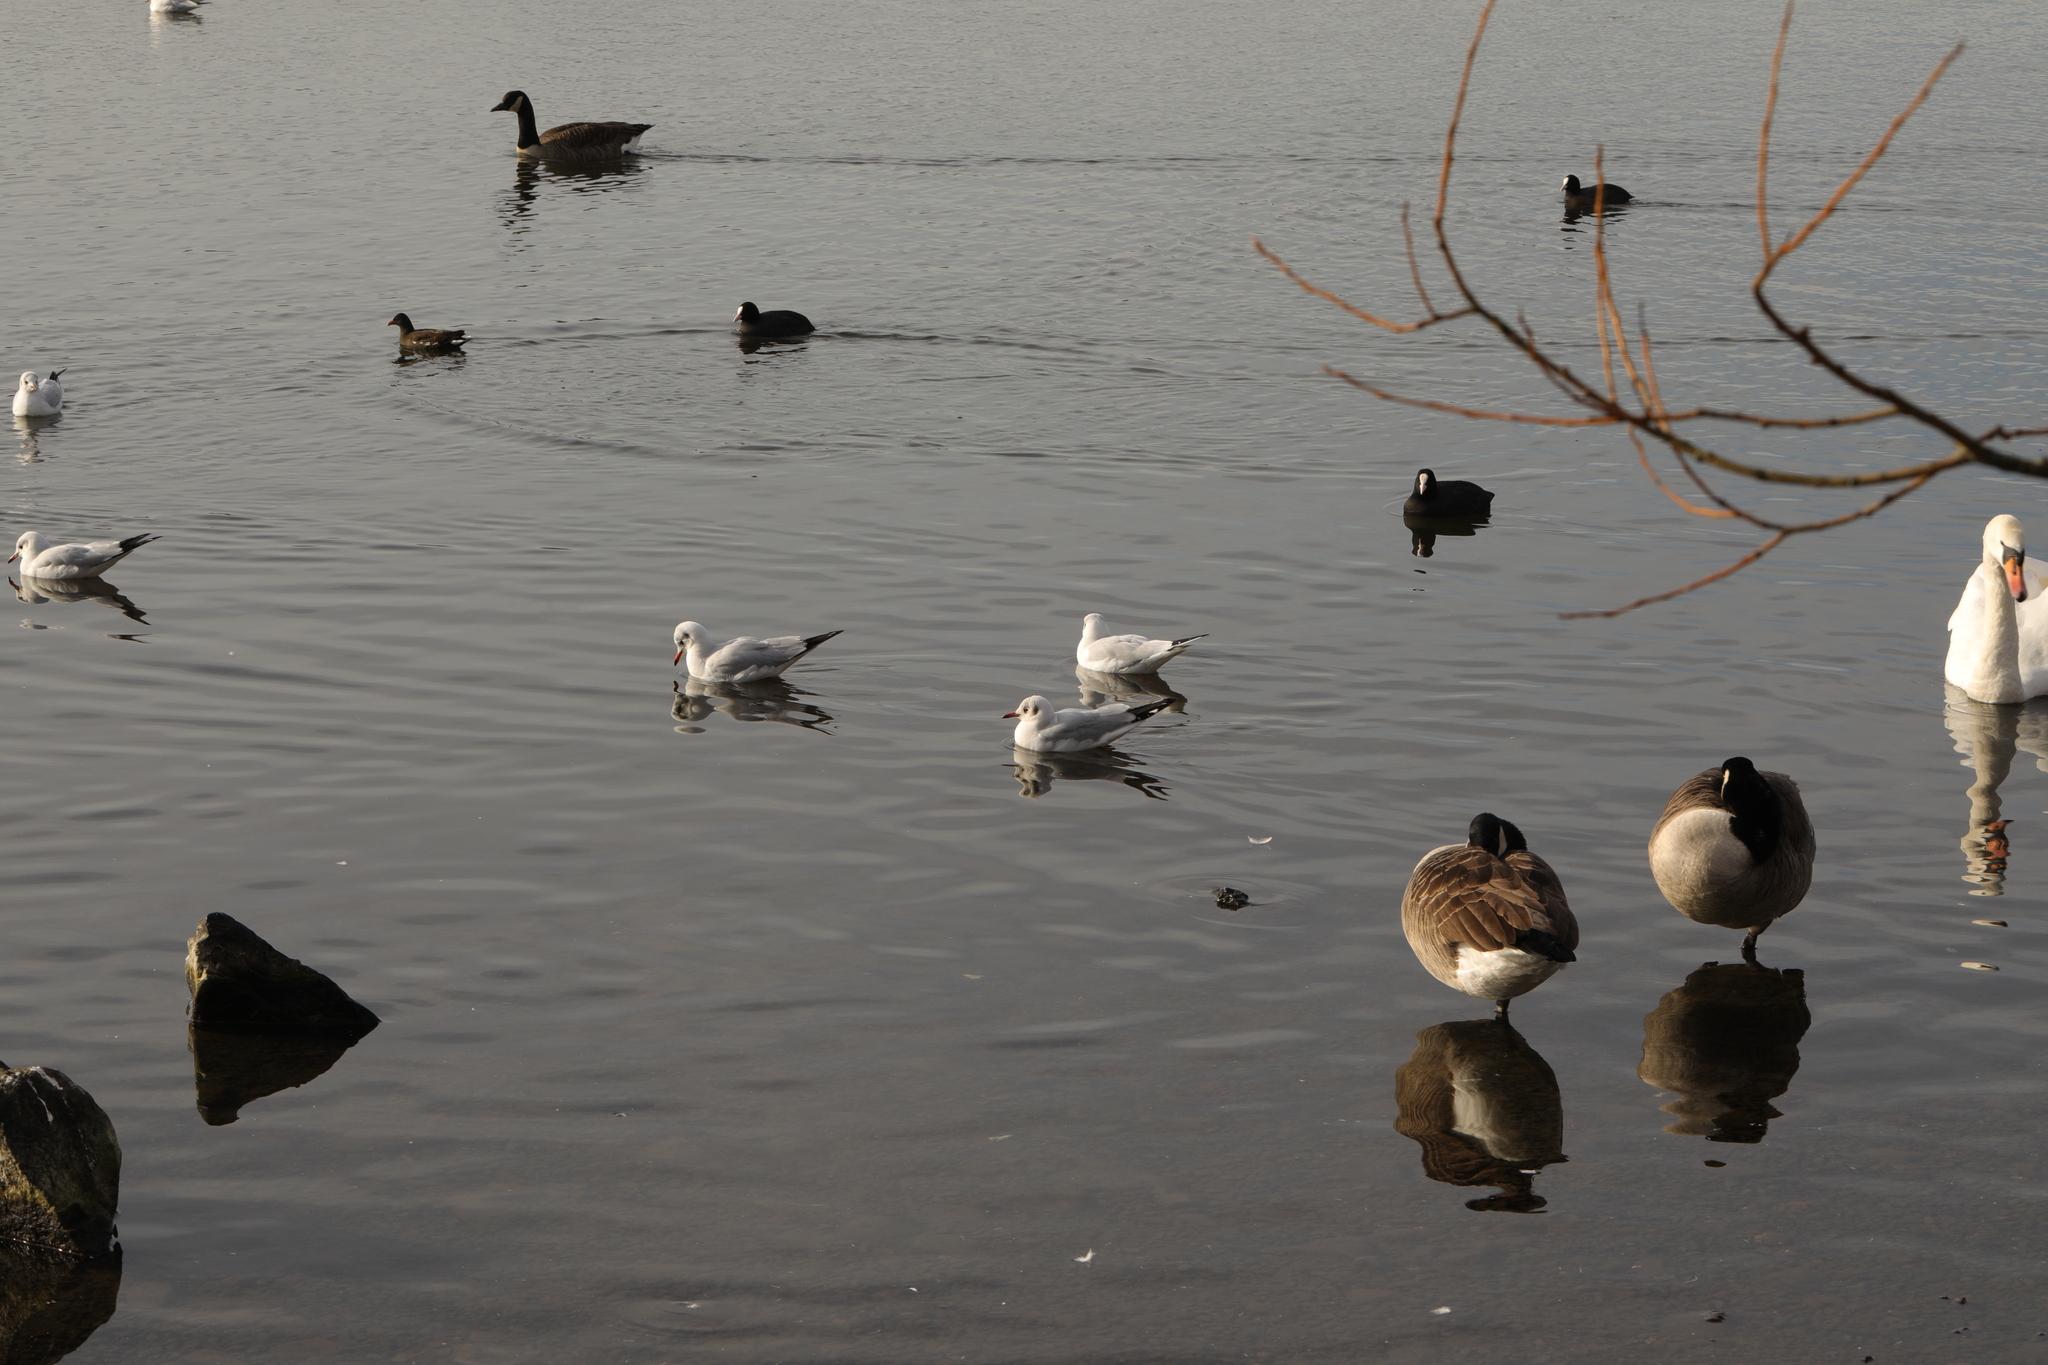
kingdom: Animalia
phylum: Chordata
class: Aves
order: Charadriiformes
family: Laridae
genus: Chroicocephalus
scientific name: Chroicocephalus ridibundus
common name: Black-headed gull
